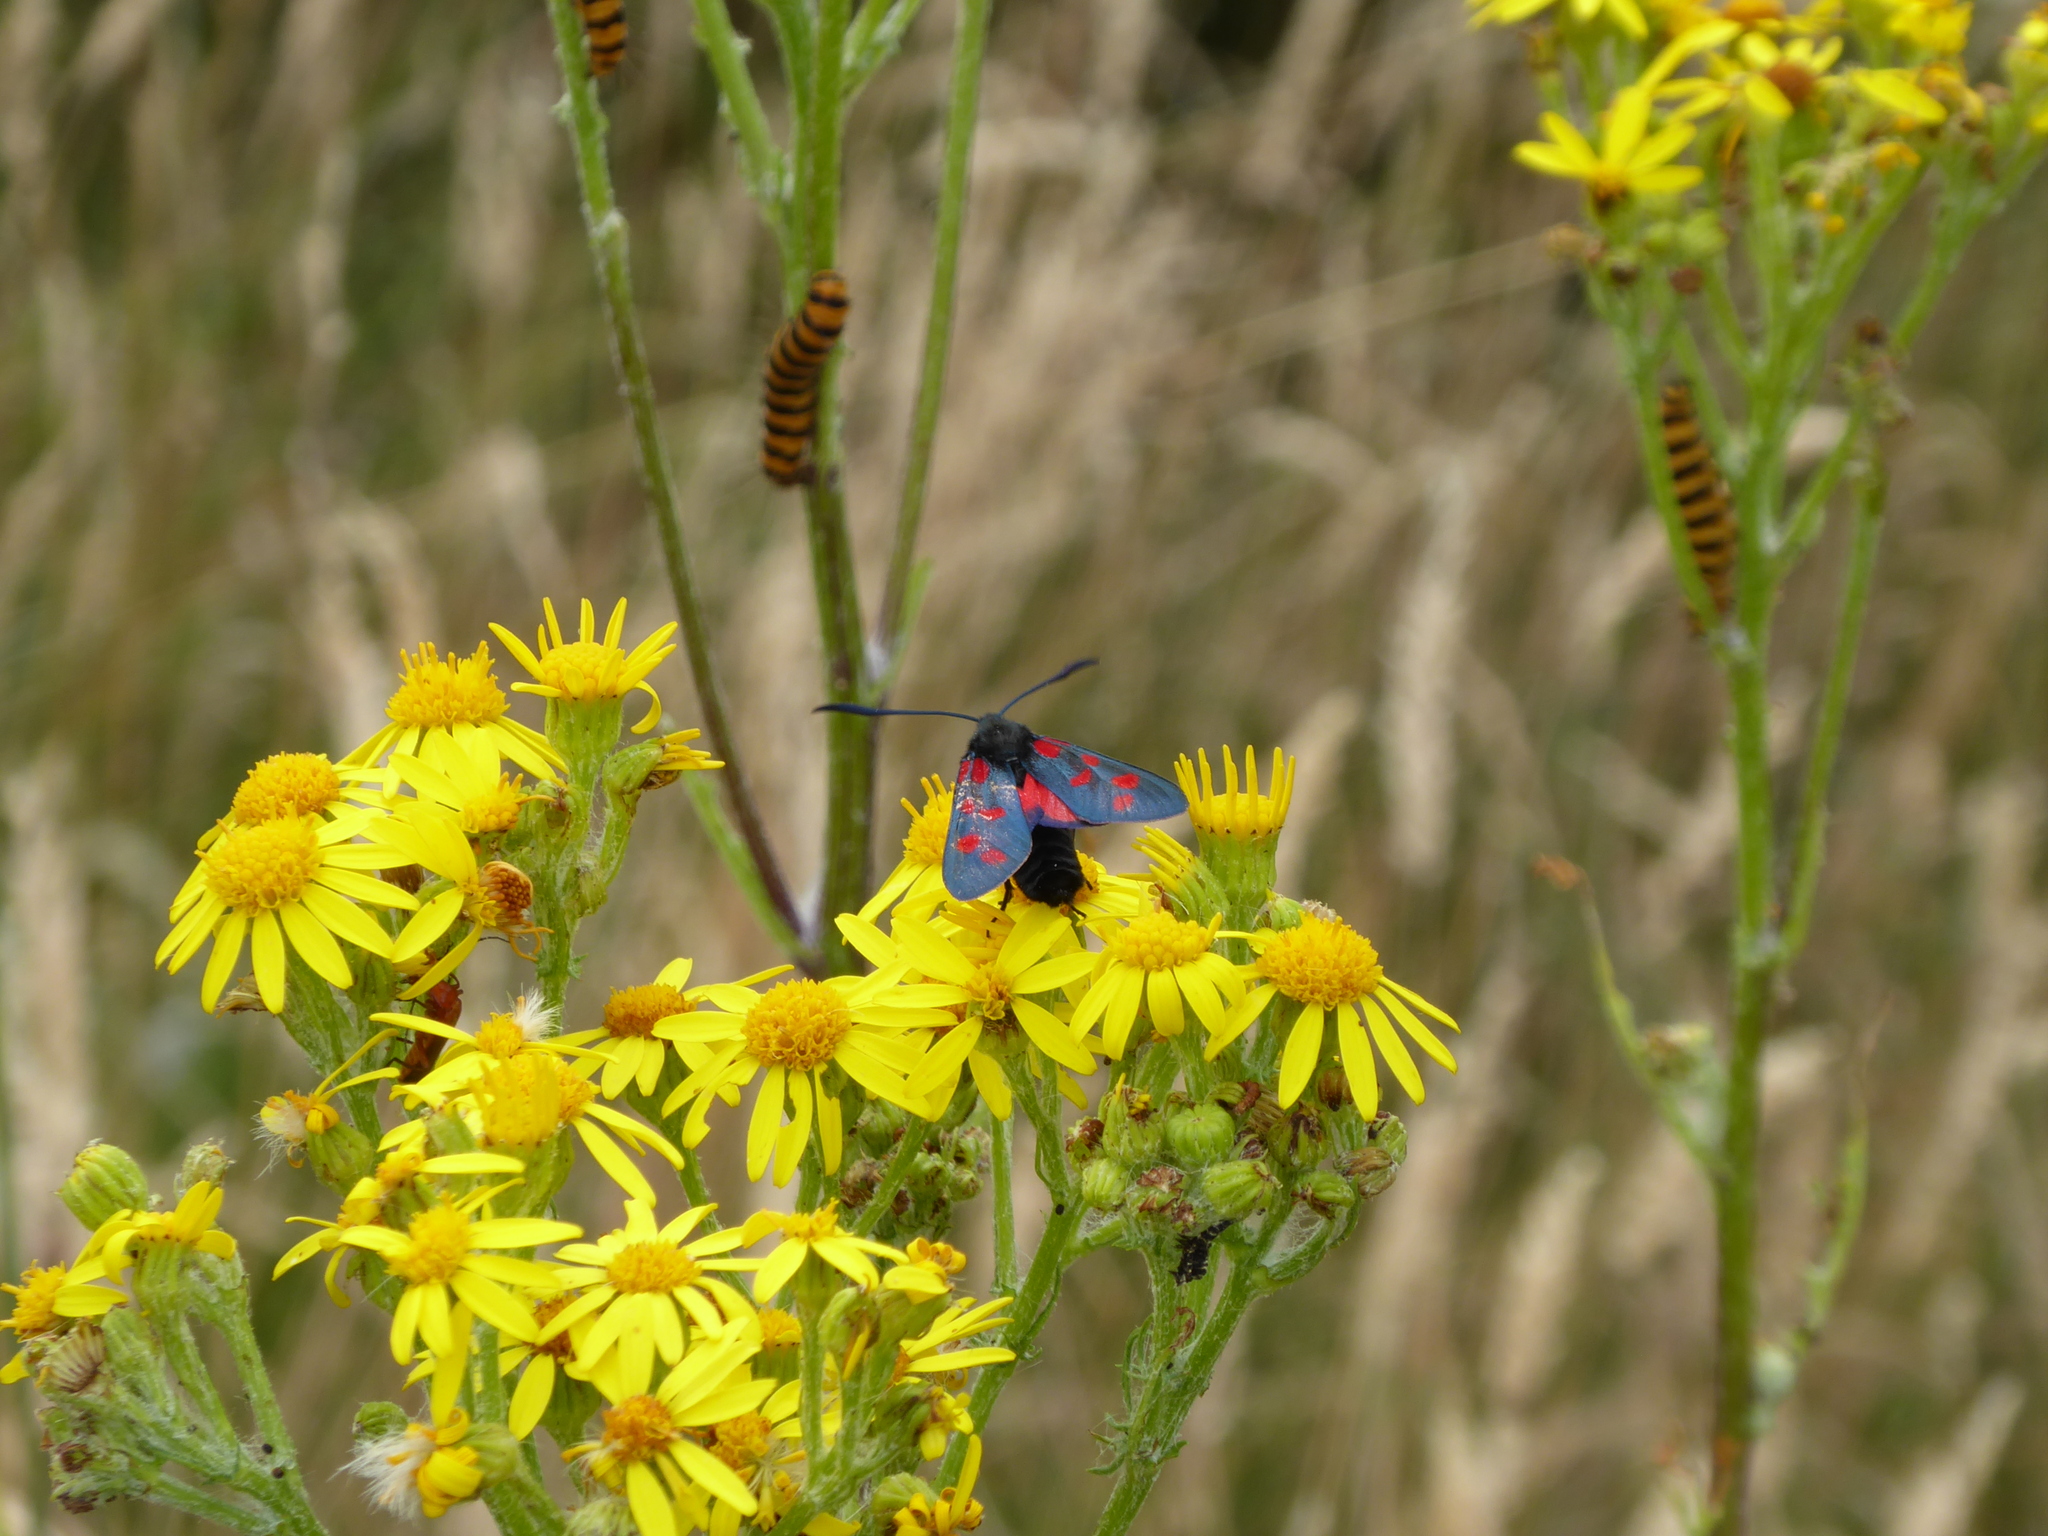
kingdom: Animalia
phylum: Arthropoda
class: Insecta
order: Lepidoptera
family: Zygaenidae
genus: Zygaena
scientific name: Zygaena filipendulae
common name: Six-spot burnet
